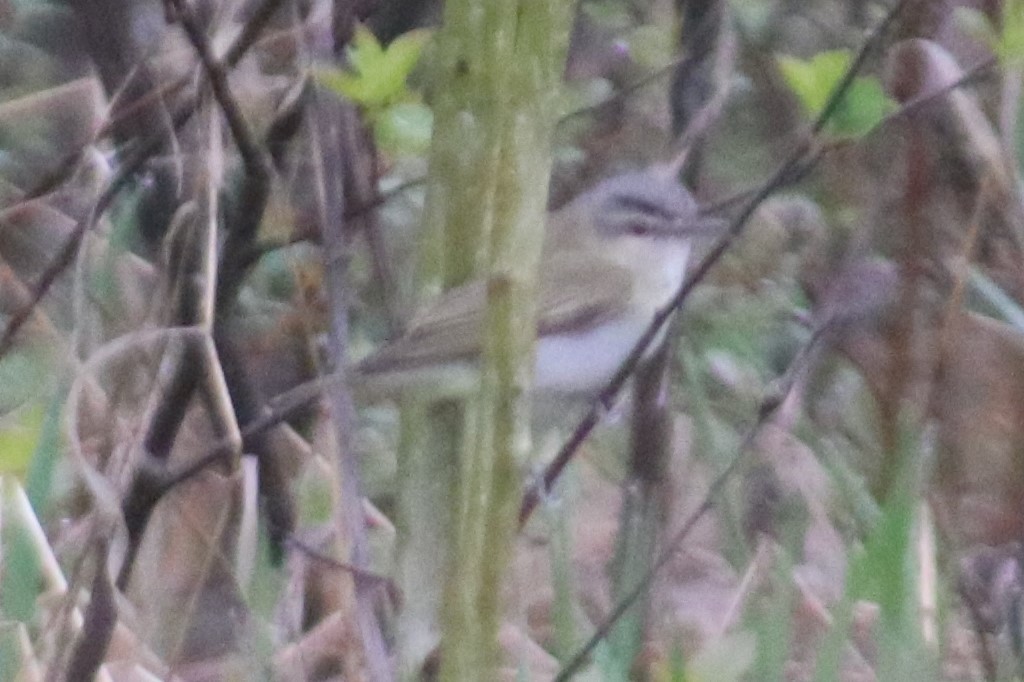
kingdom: Animalia
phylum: Chordata
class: Aves
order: Passeriformes
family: Vireonidae
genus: Vireo
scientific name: Vireo olivaceus
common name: Red-eyed vireo
